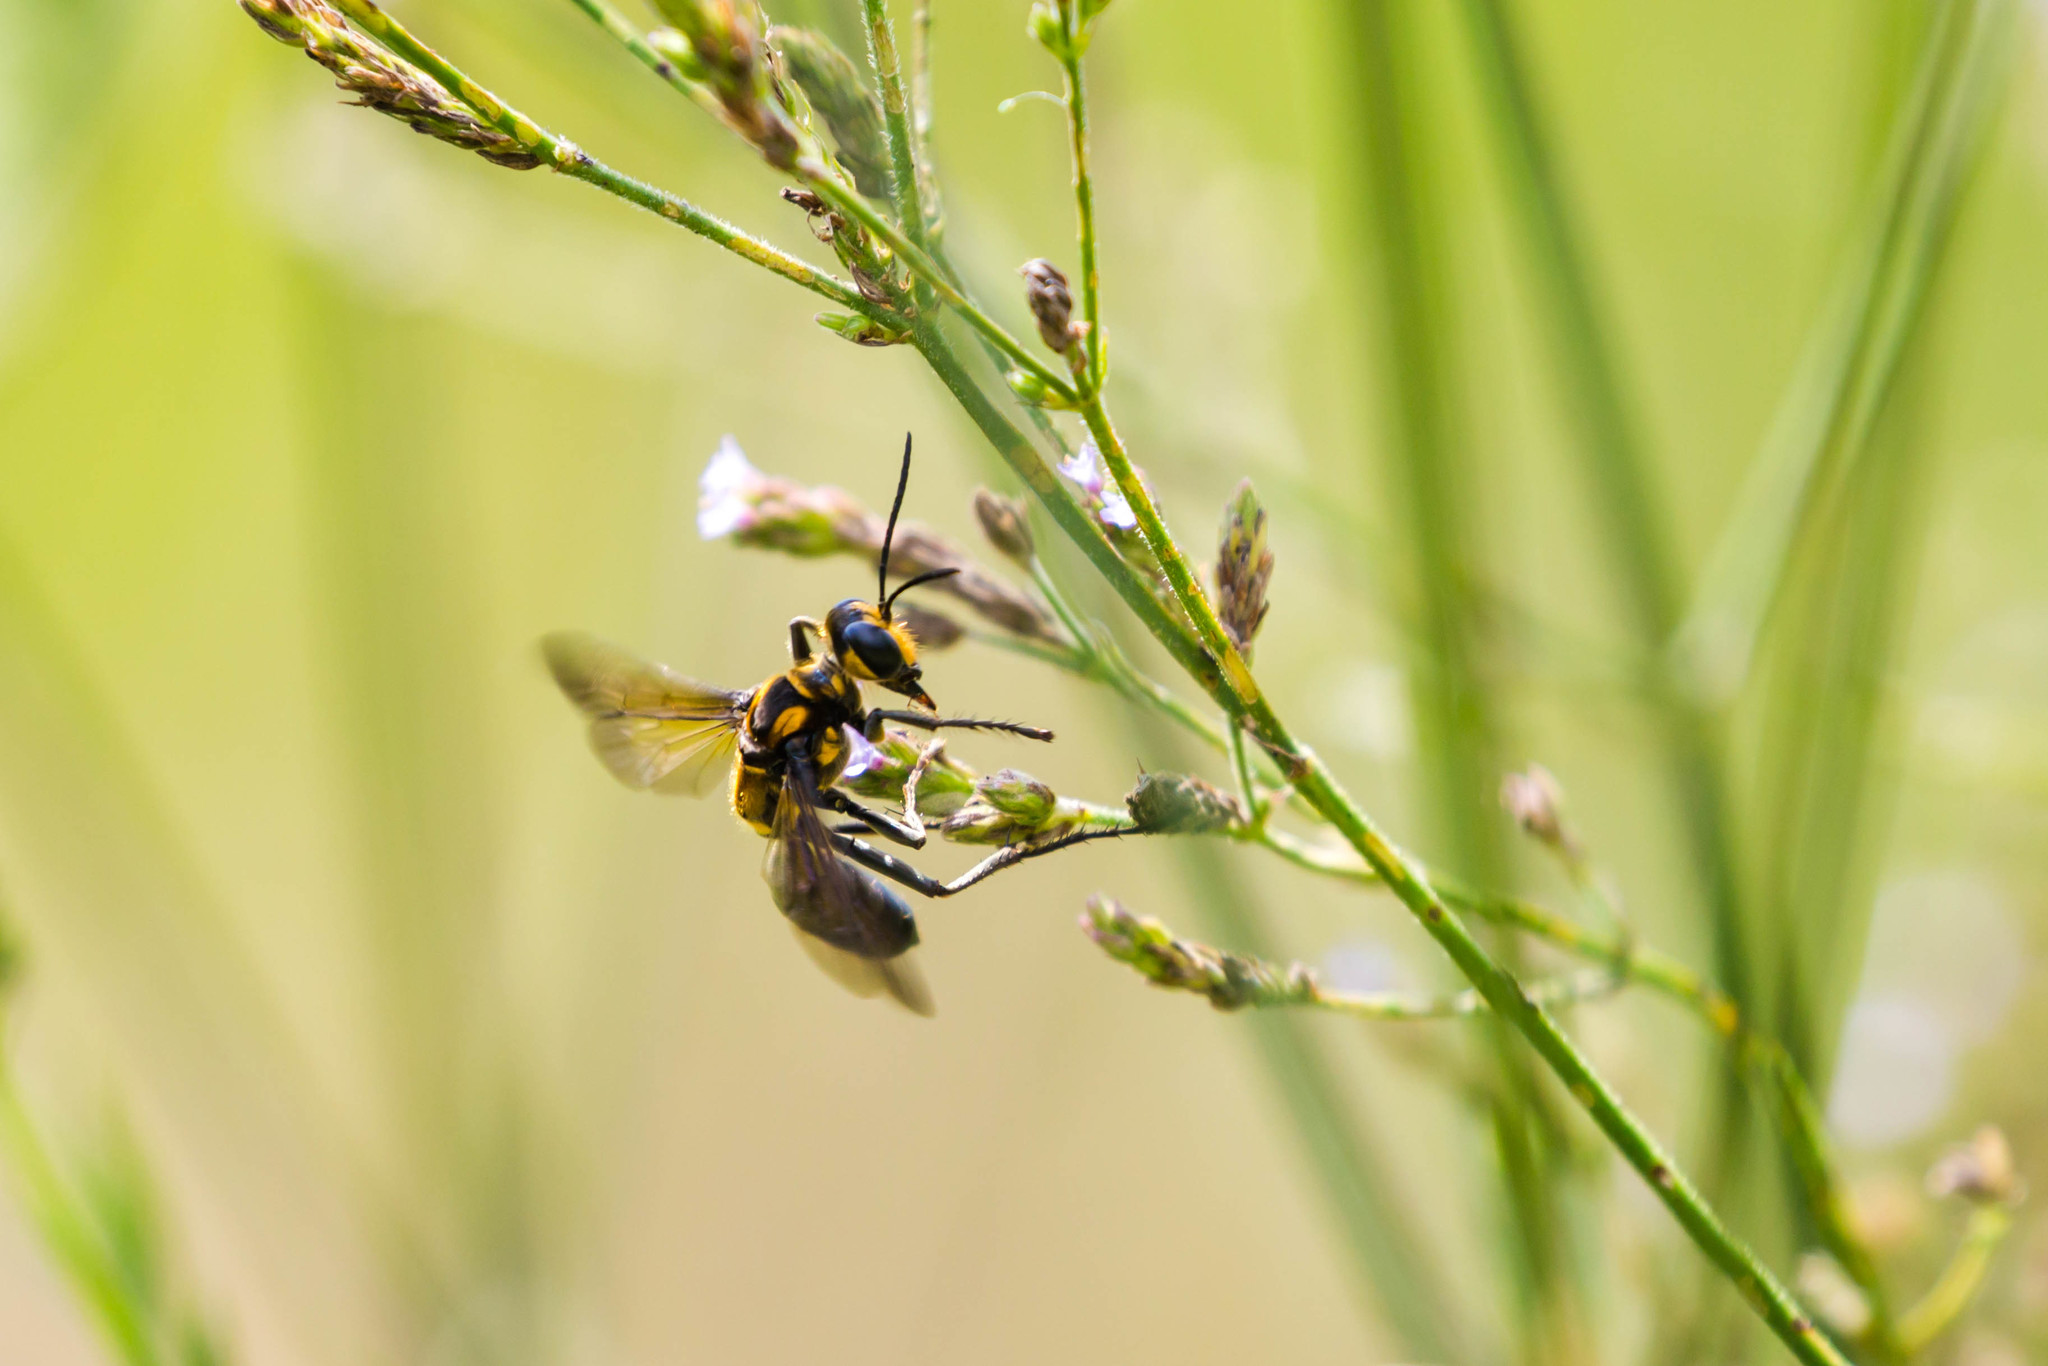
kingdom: Animalia
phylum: Arthropoda
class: Insecta
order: Hymenoptera
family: Sphecidae
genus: Sphex
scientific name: Sphex habenus
